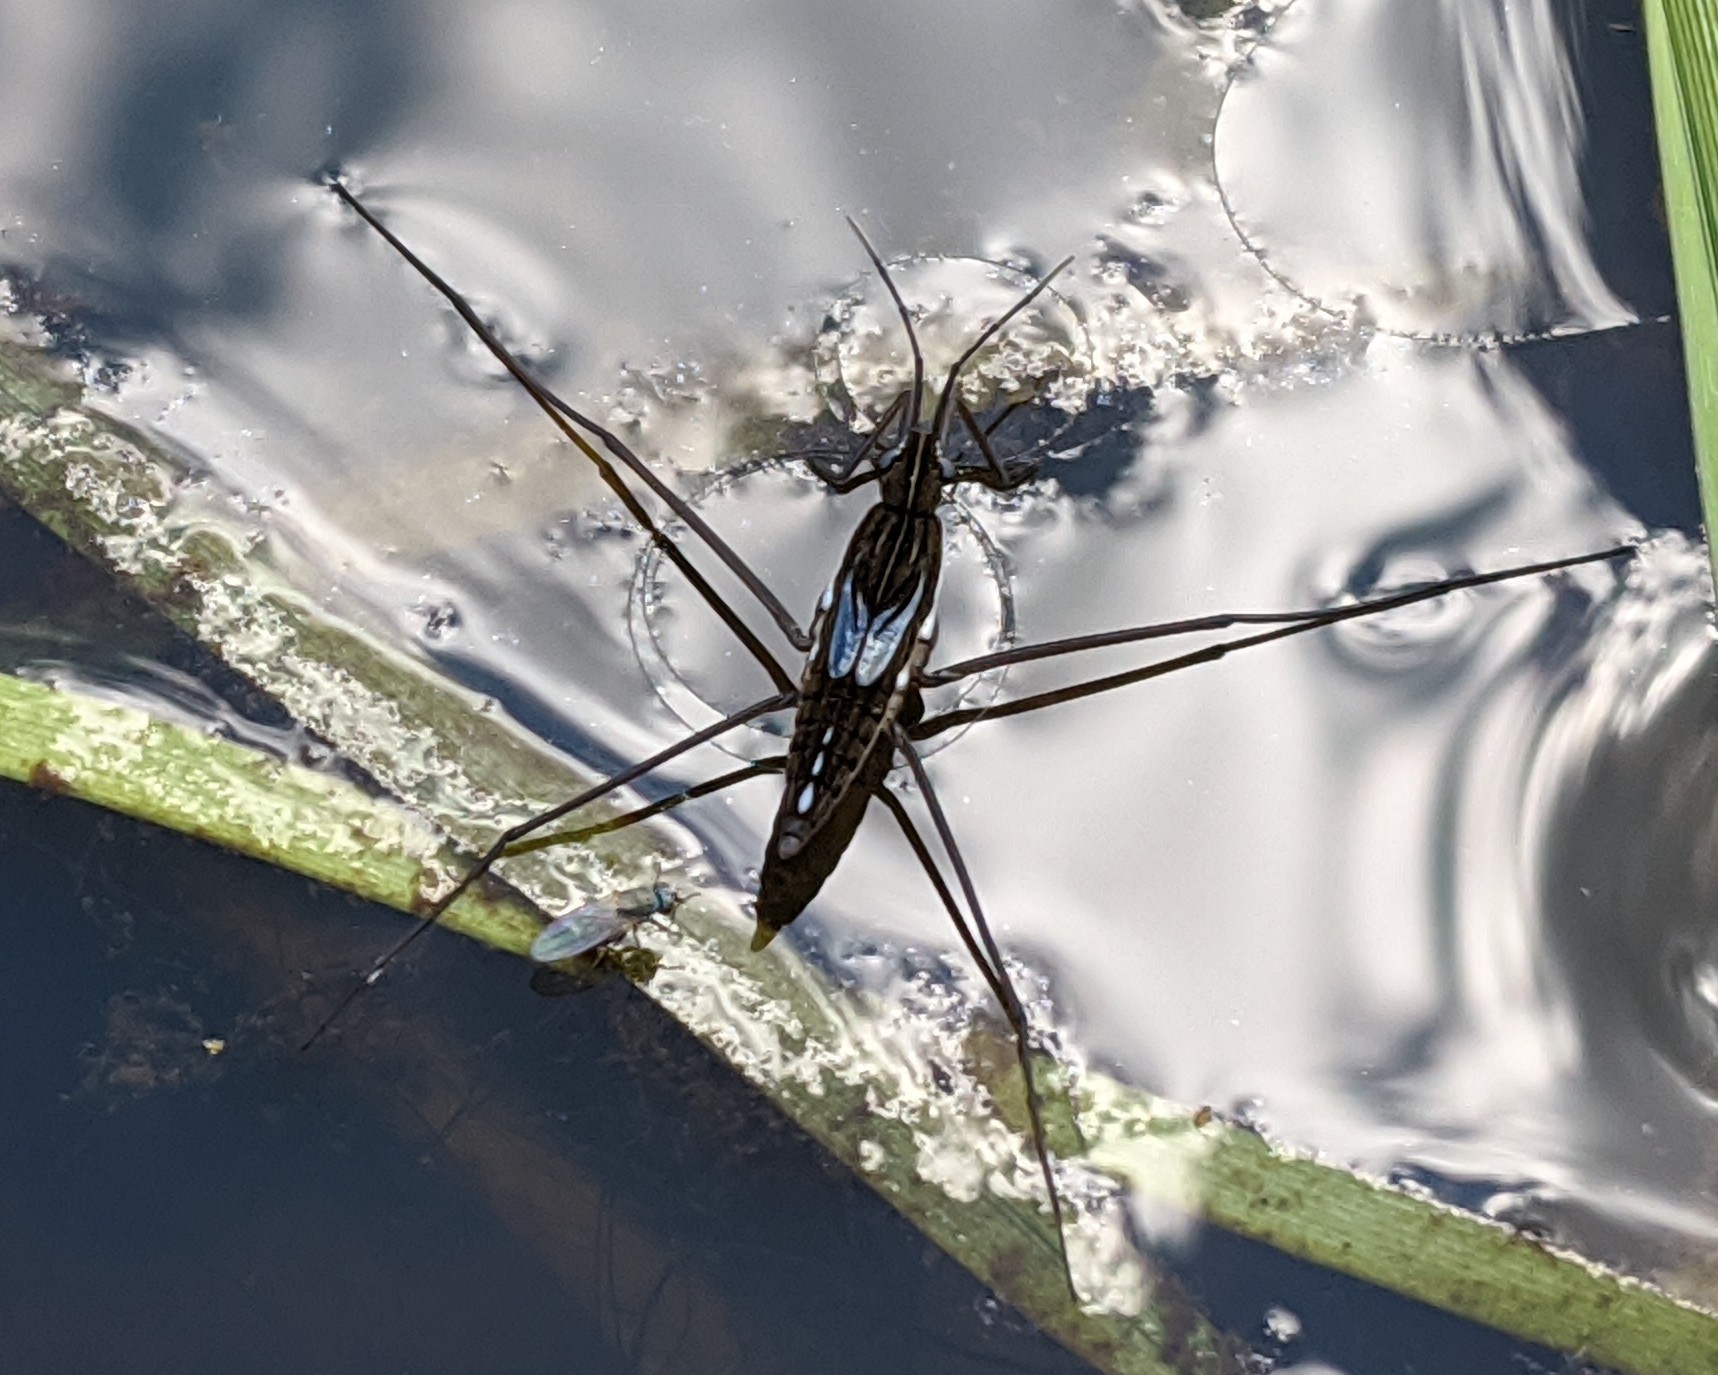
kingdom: Animalia
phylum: Arthropoda
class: Insecta
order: Hemiptera
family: Gerridae
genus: Limnoporus
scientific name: Limnoporus rufoscutellatus
